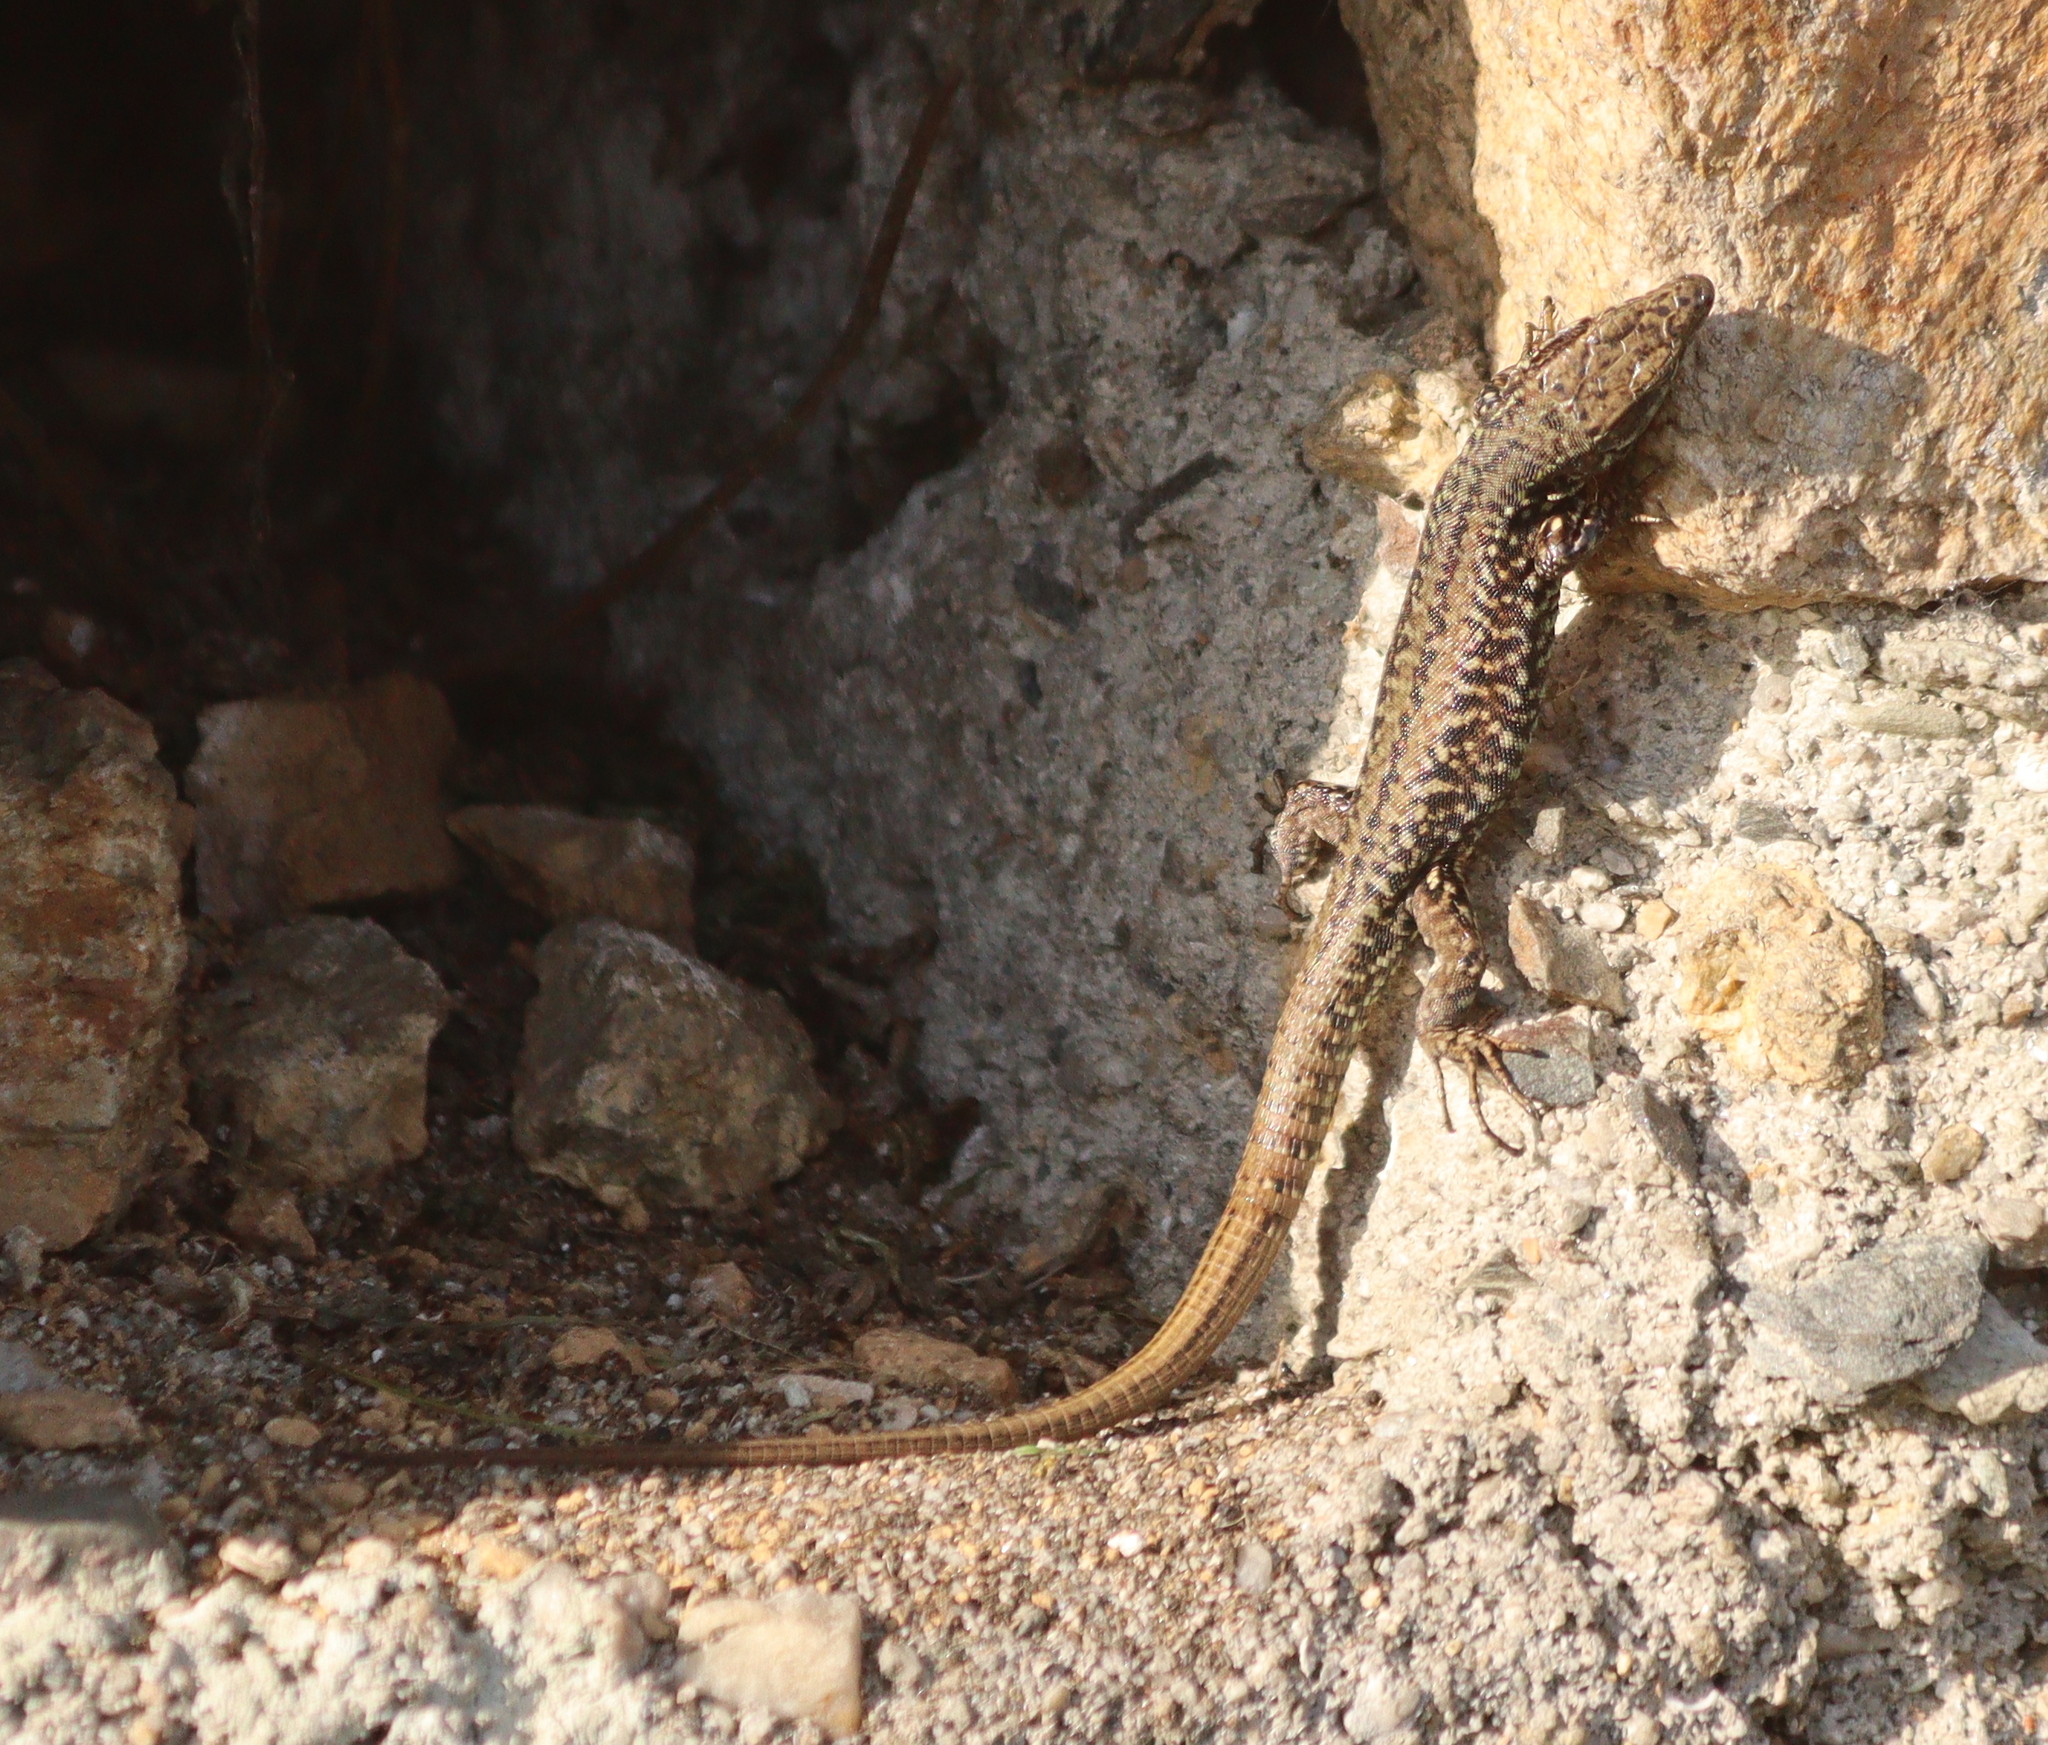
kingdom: Animalia
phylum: Chordata
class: Squamata
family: Lacertidae
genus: Podarcis
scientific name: Podarcis muralis
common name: Common wall lizard
